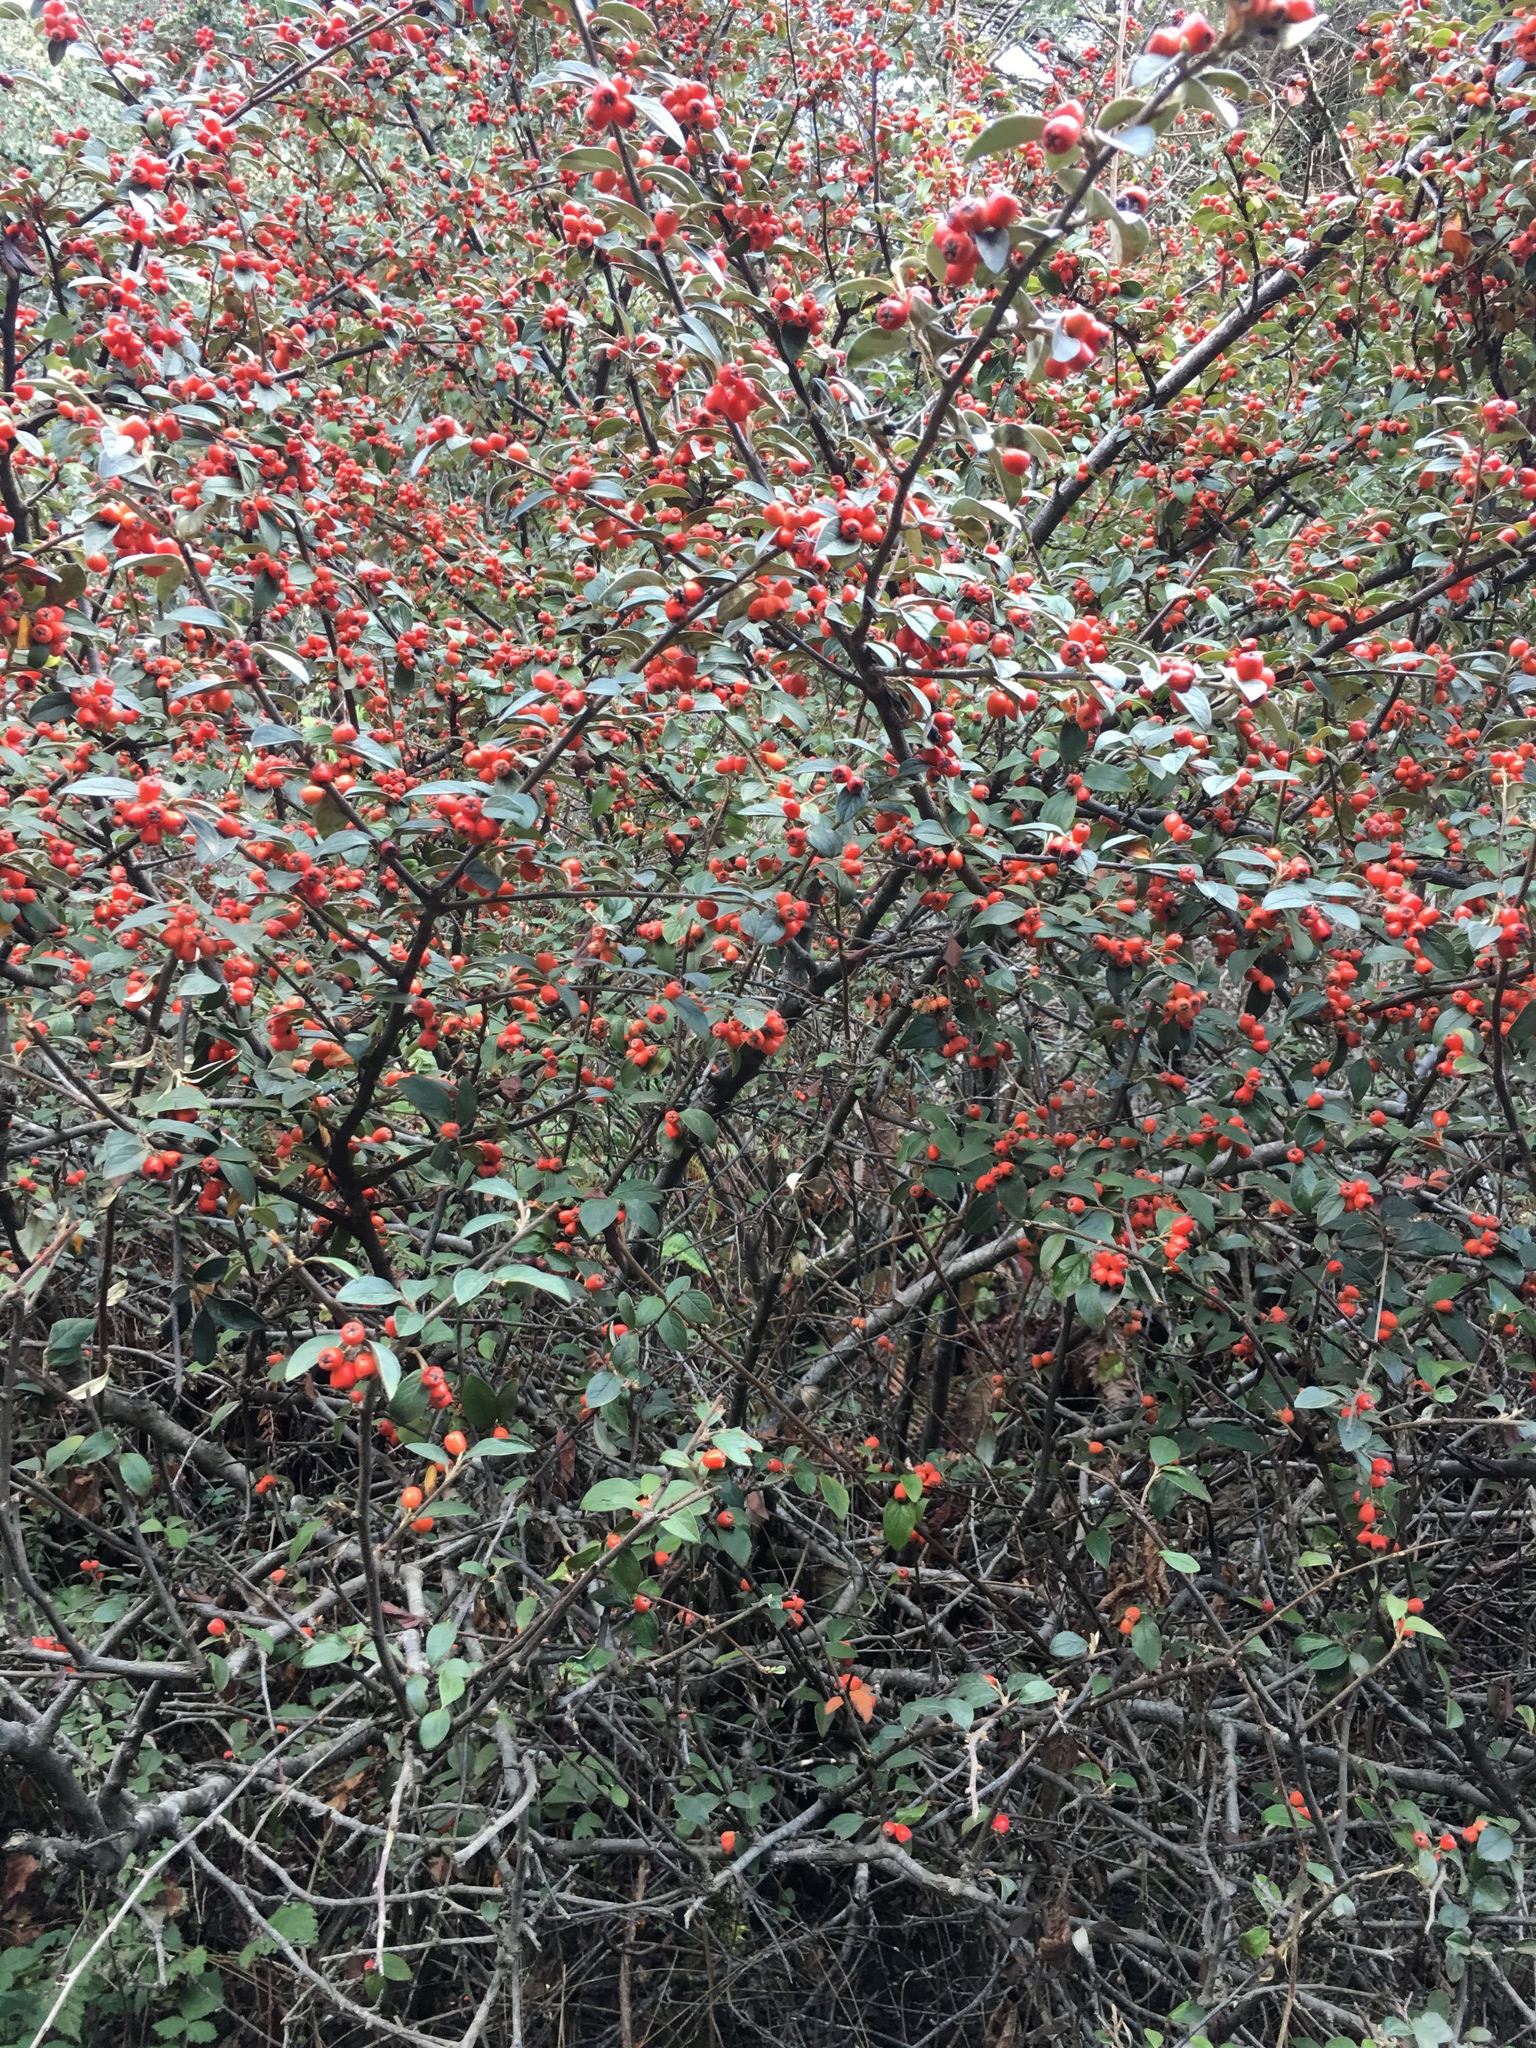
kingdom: Plantae
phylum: Tracheophyta
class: Magnoliopsida
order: Rosales
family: Rosaceae
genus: Cotoneaster
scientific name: Cotoneaster franchetii
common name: Franchet's cotoneaster
